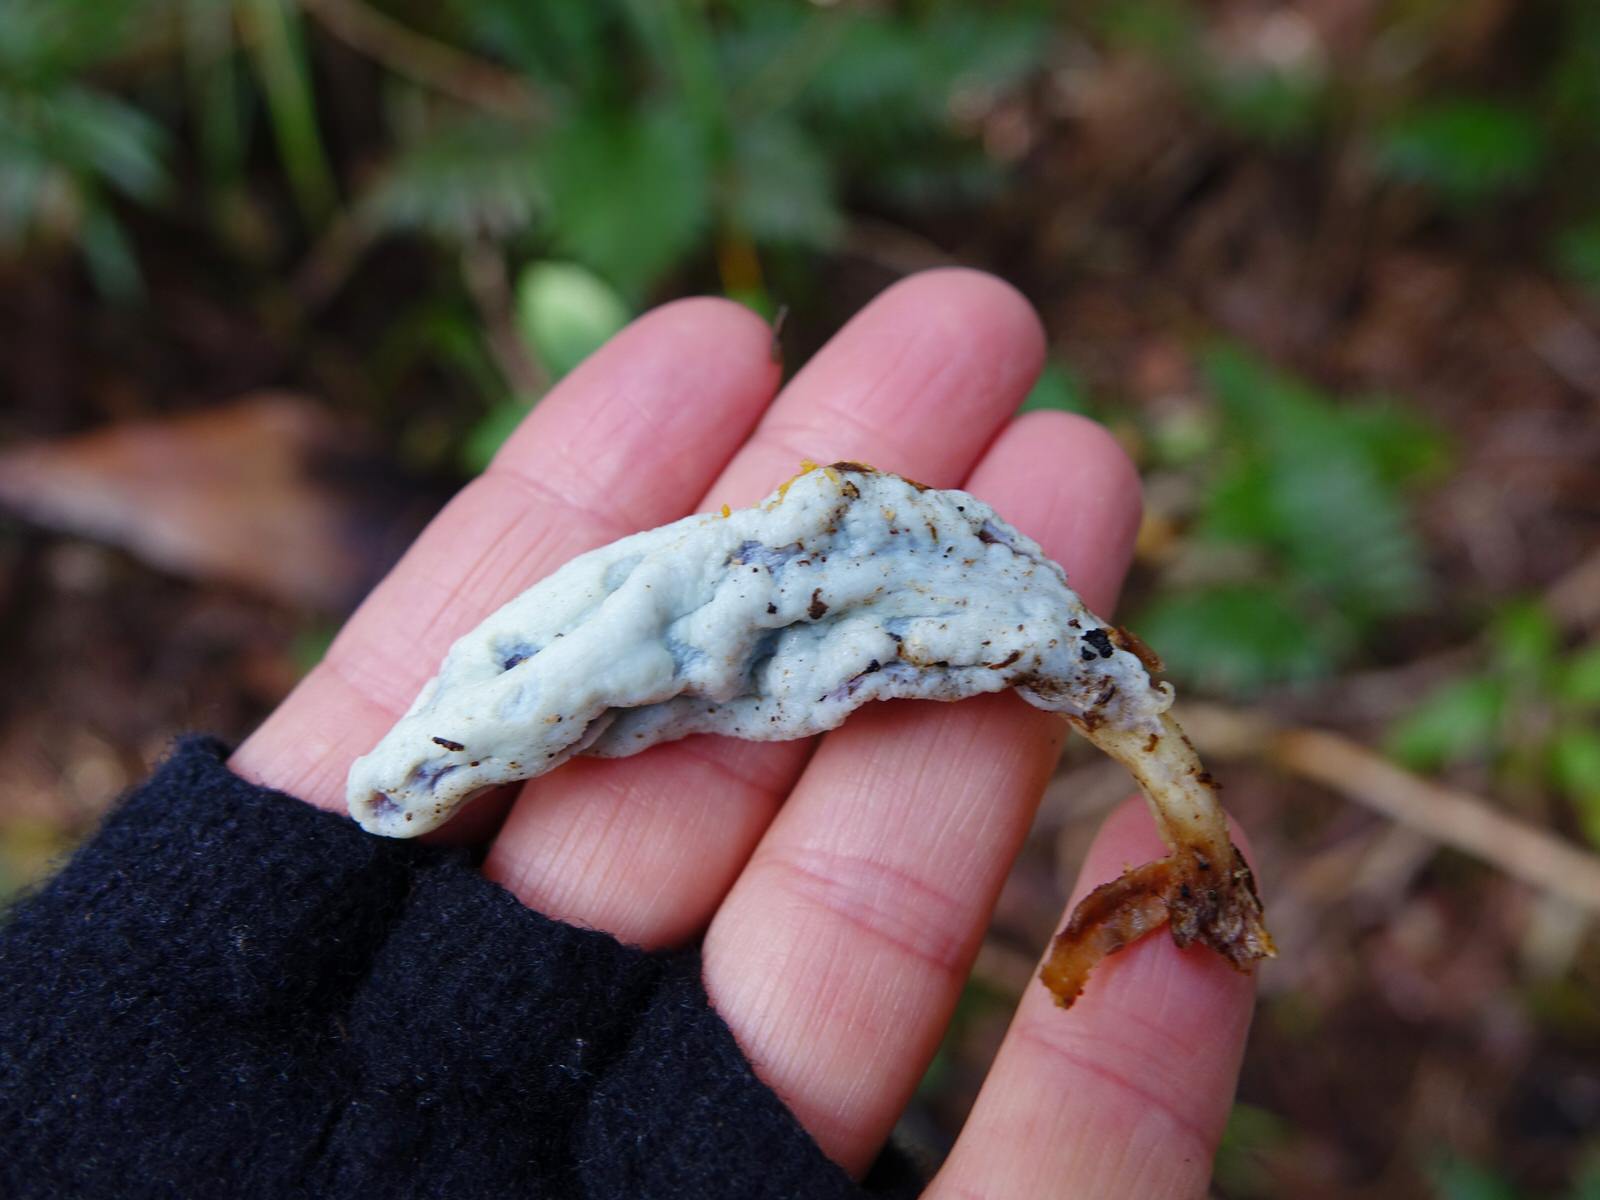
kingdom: Fungi
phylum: Basidiomycota
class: Agaricomycetes
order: Agaricales
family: Agaricaceae
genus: Clavogaster
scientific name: Clavogaster virescens
